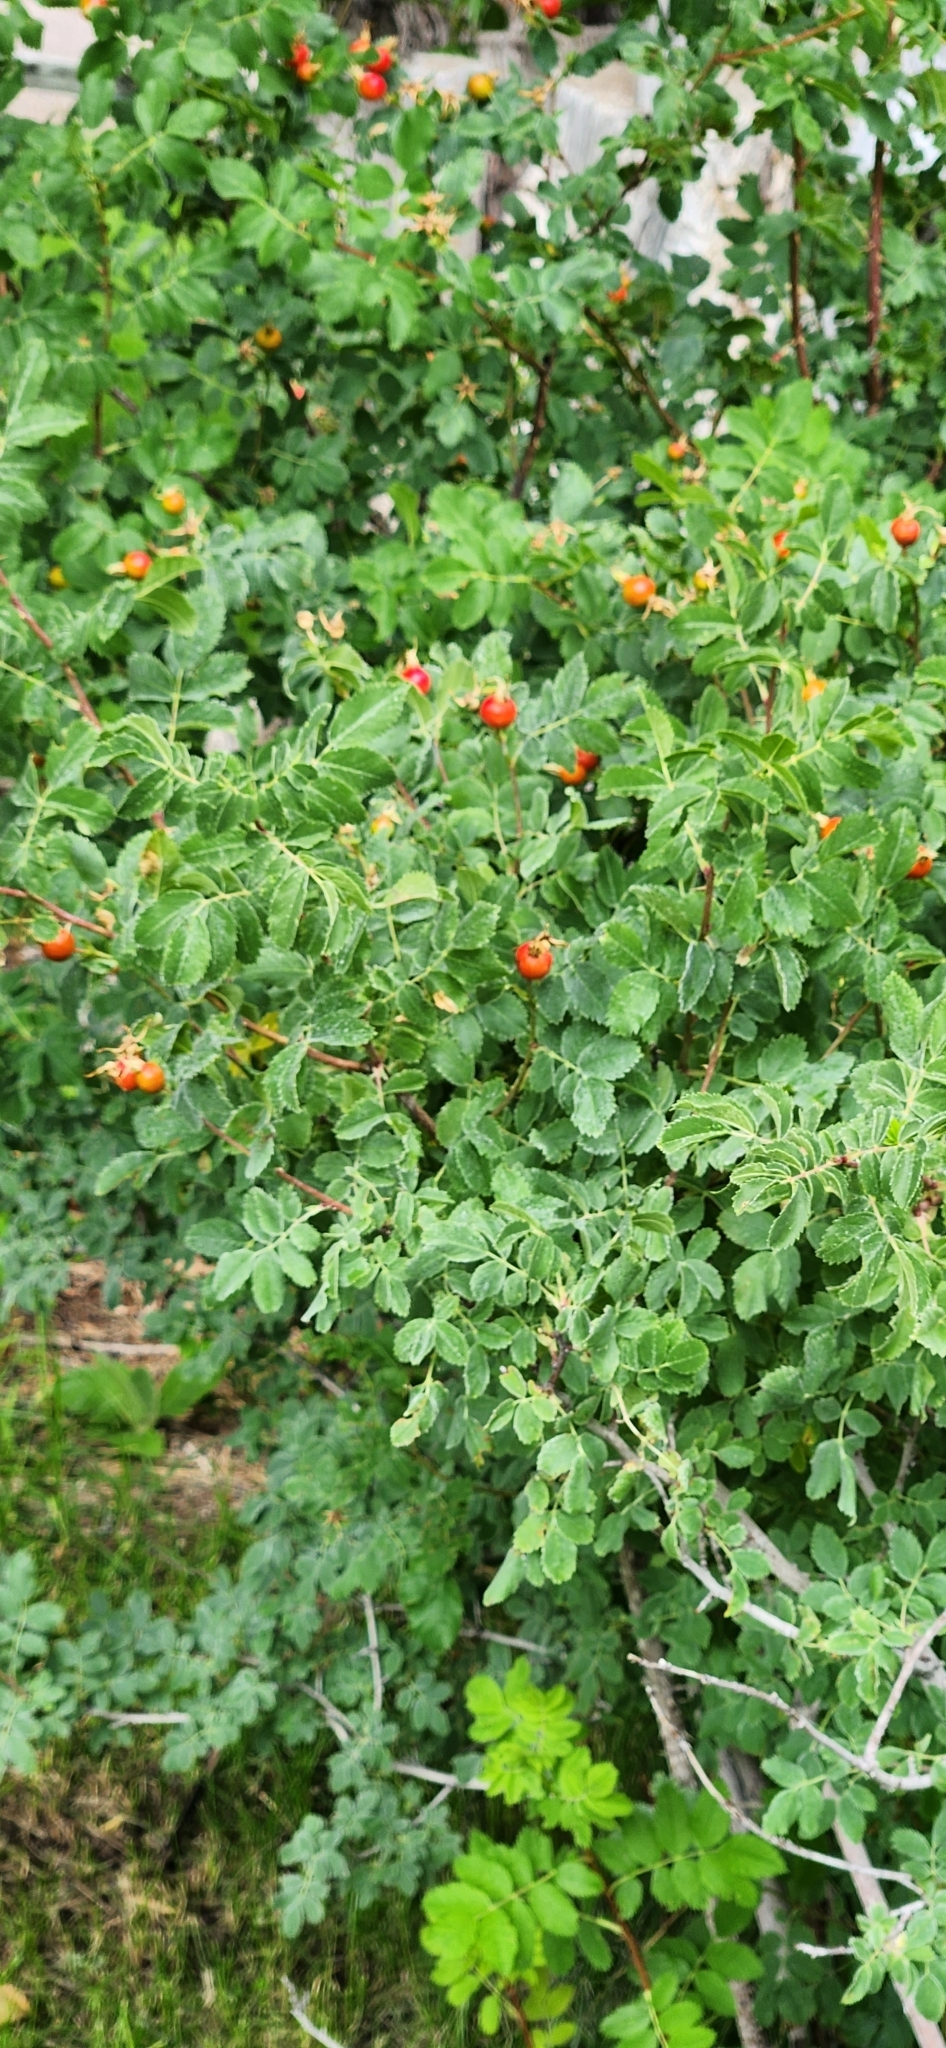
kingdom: Plantae
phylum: Tracheophyta
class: Magnoliopsida
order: Rosales
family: Rosaceae
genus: Rosa
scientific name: Rosa woodsii
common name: Woods's rose
